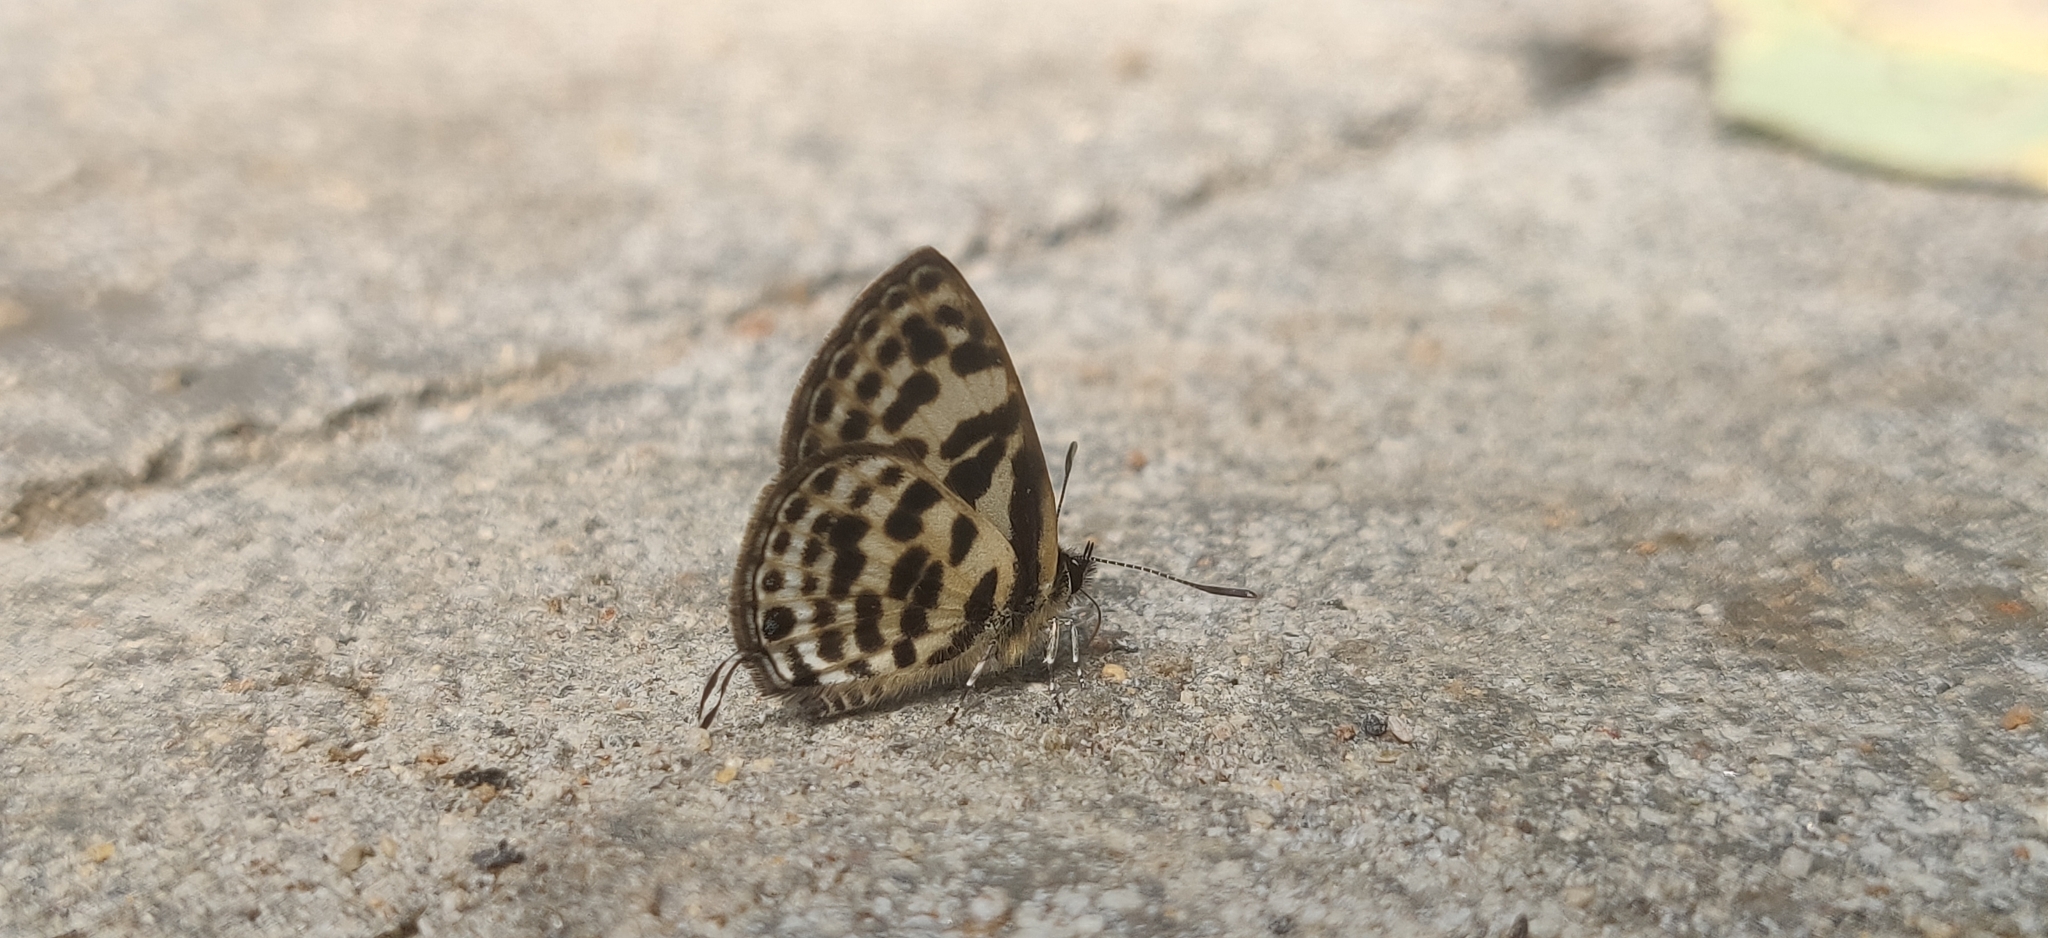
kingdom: Animalia
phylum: Arthropoda
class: Insecta
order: Lepidoptera
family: Lycaenidae
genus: Tarucus
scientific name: Tarucus
